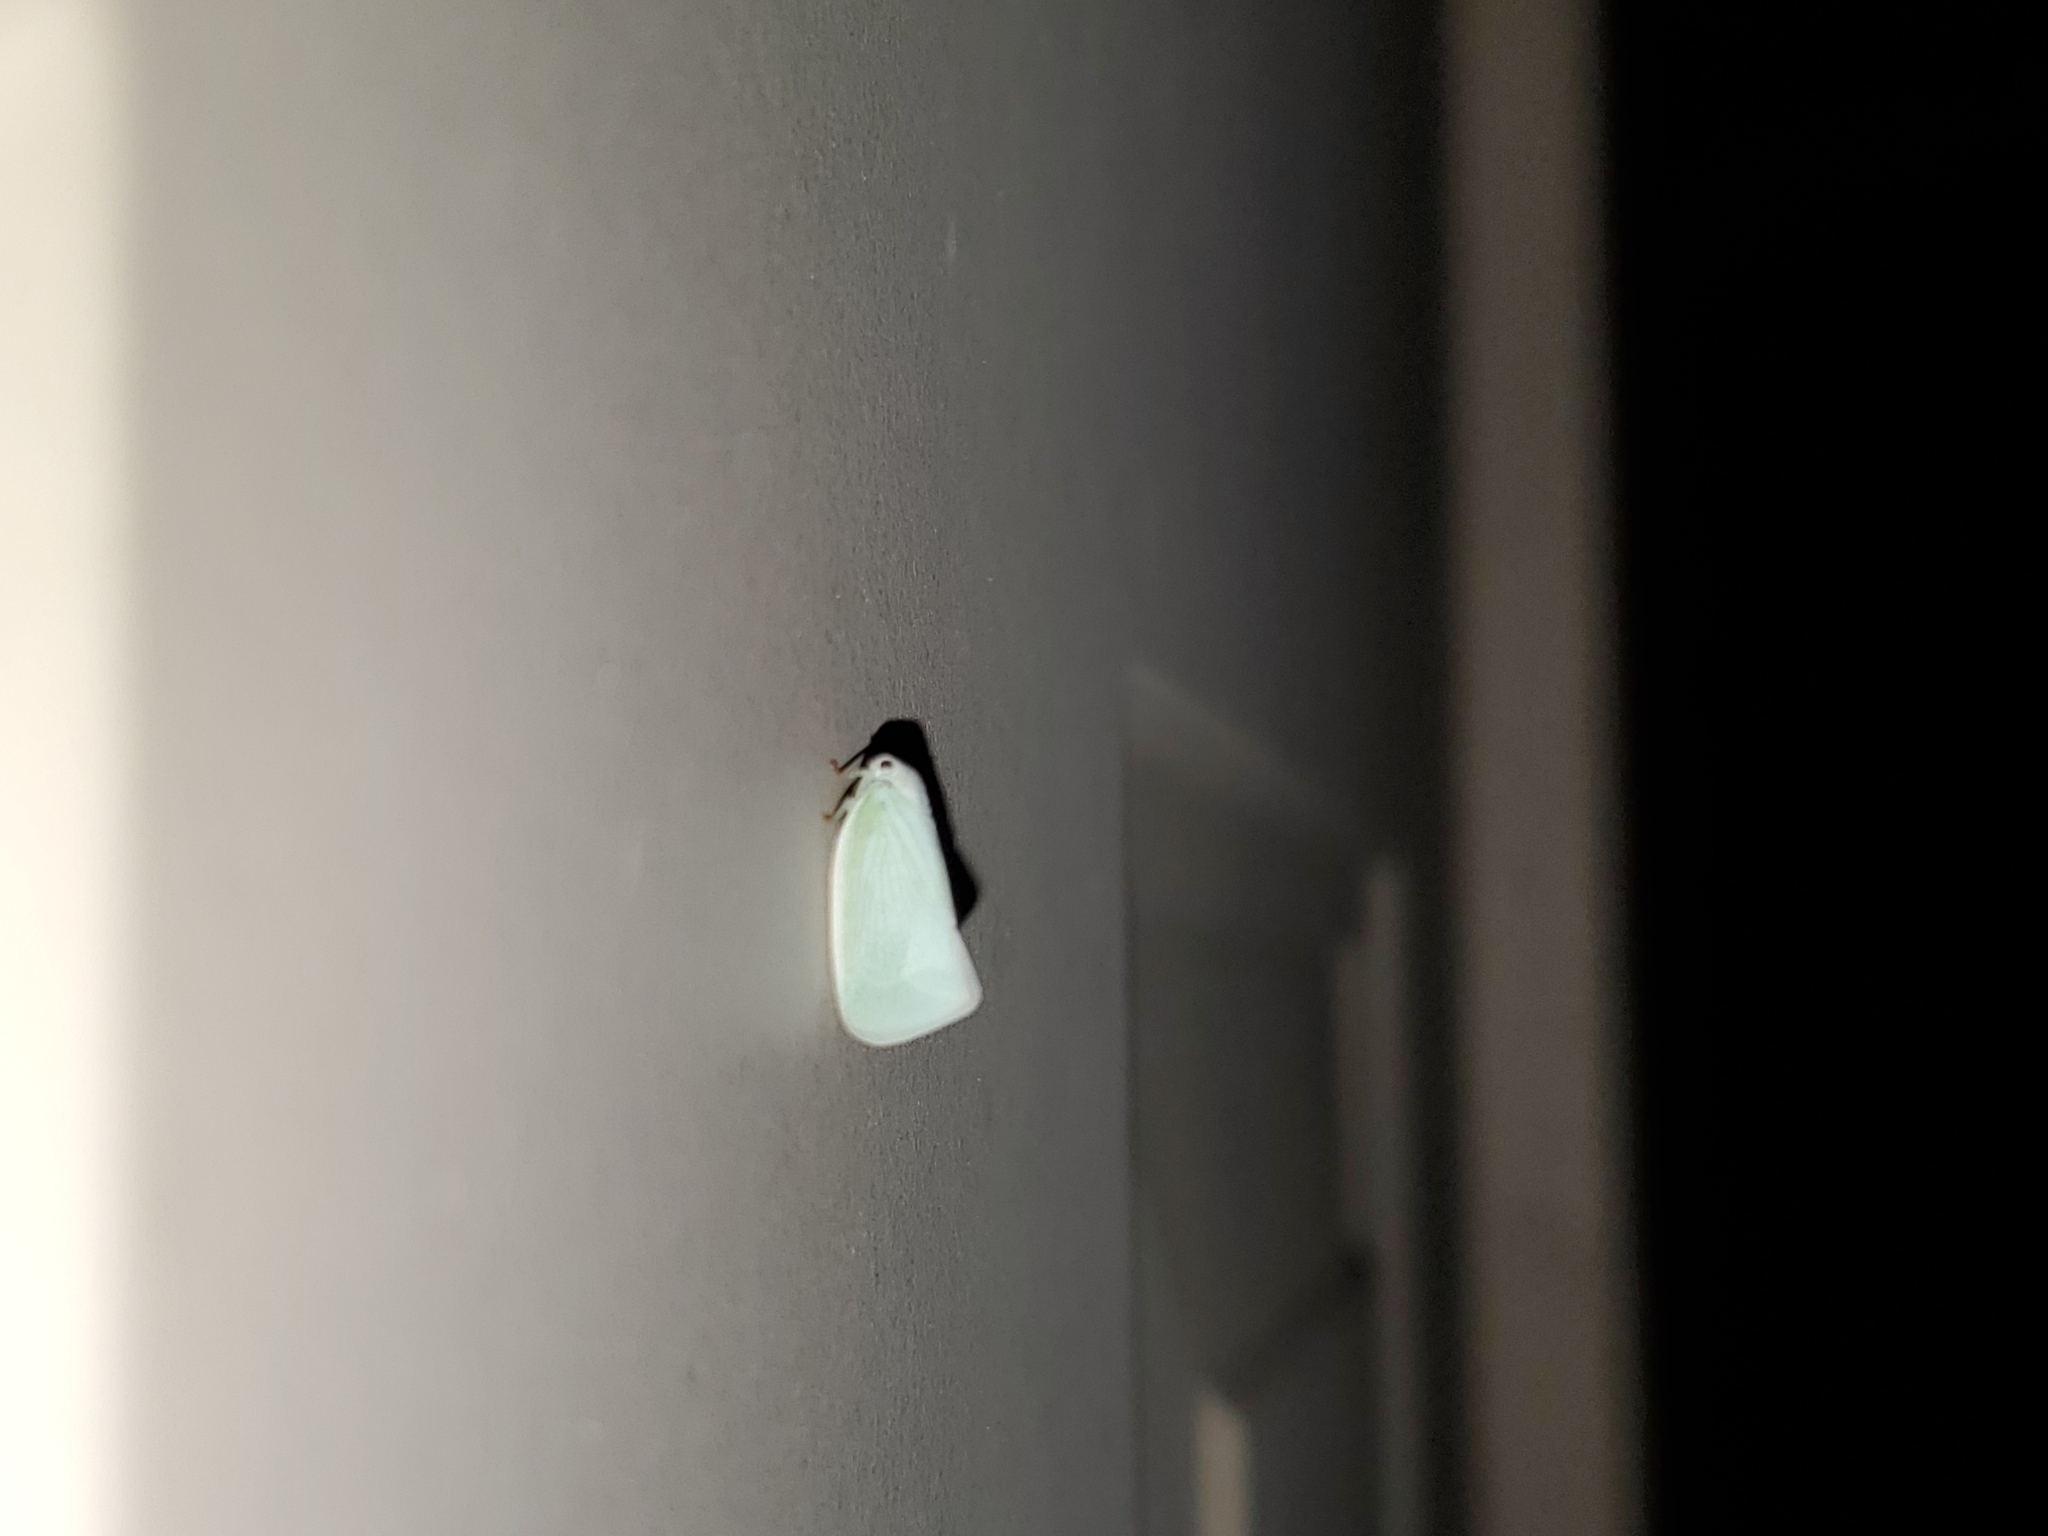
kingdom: Animalia
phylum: Arthropoda
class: Insecta
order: Hemiptera
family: Flatidae
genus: Flatormenis
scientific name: Flatormenis proxima
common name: Northern flatid planthopper
